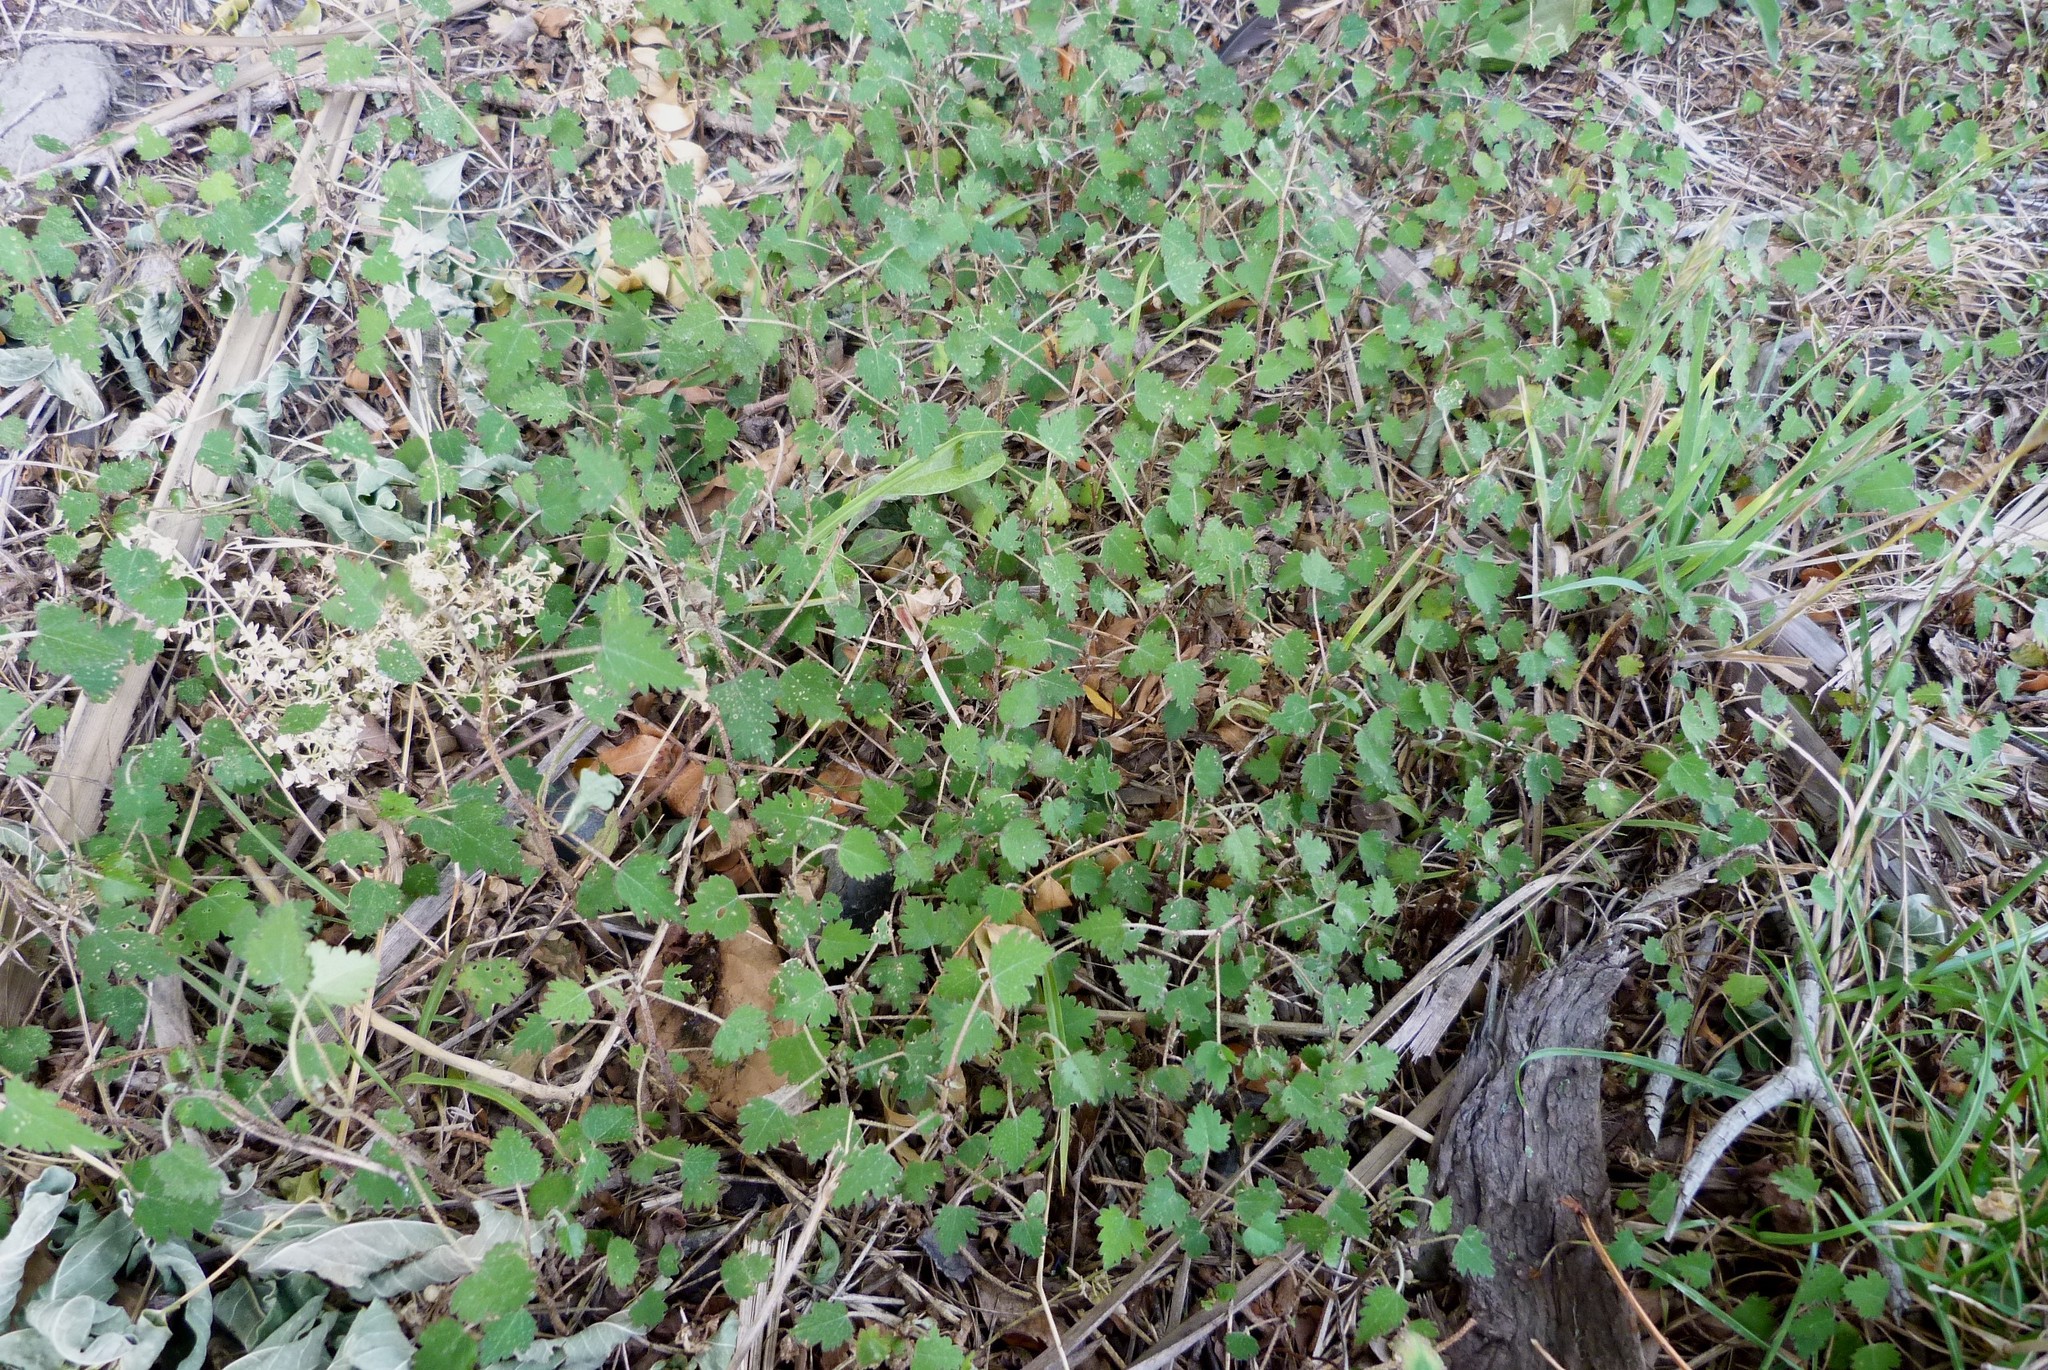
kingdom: Plantae
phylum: Tracheophyta
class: Magnoliopsida
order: Malvales
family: Malvaceae
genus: Plagianthus
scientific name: Plagianthus regius
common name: Manatu
